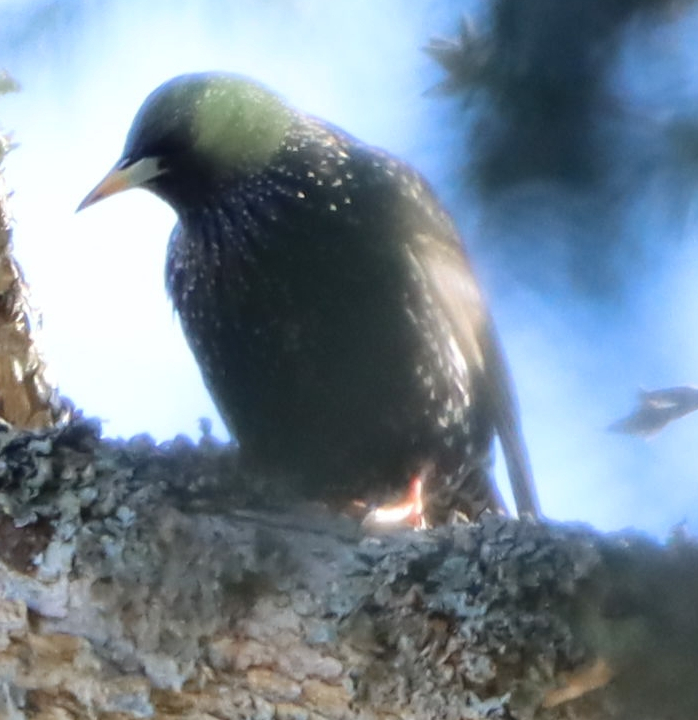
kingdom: Animalia
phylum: Chordata
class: Aves
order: Passeriformes
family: Sturnidae
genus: Sturnus
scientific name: Sturnus vulgaris
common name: Common starling
